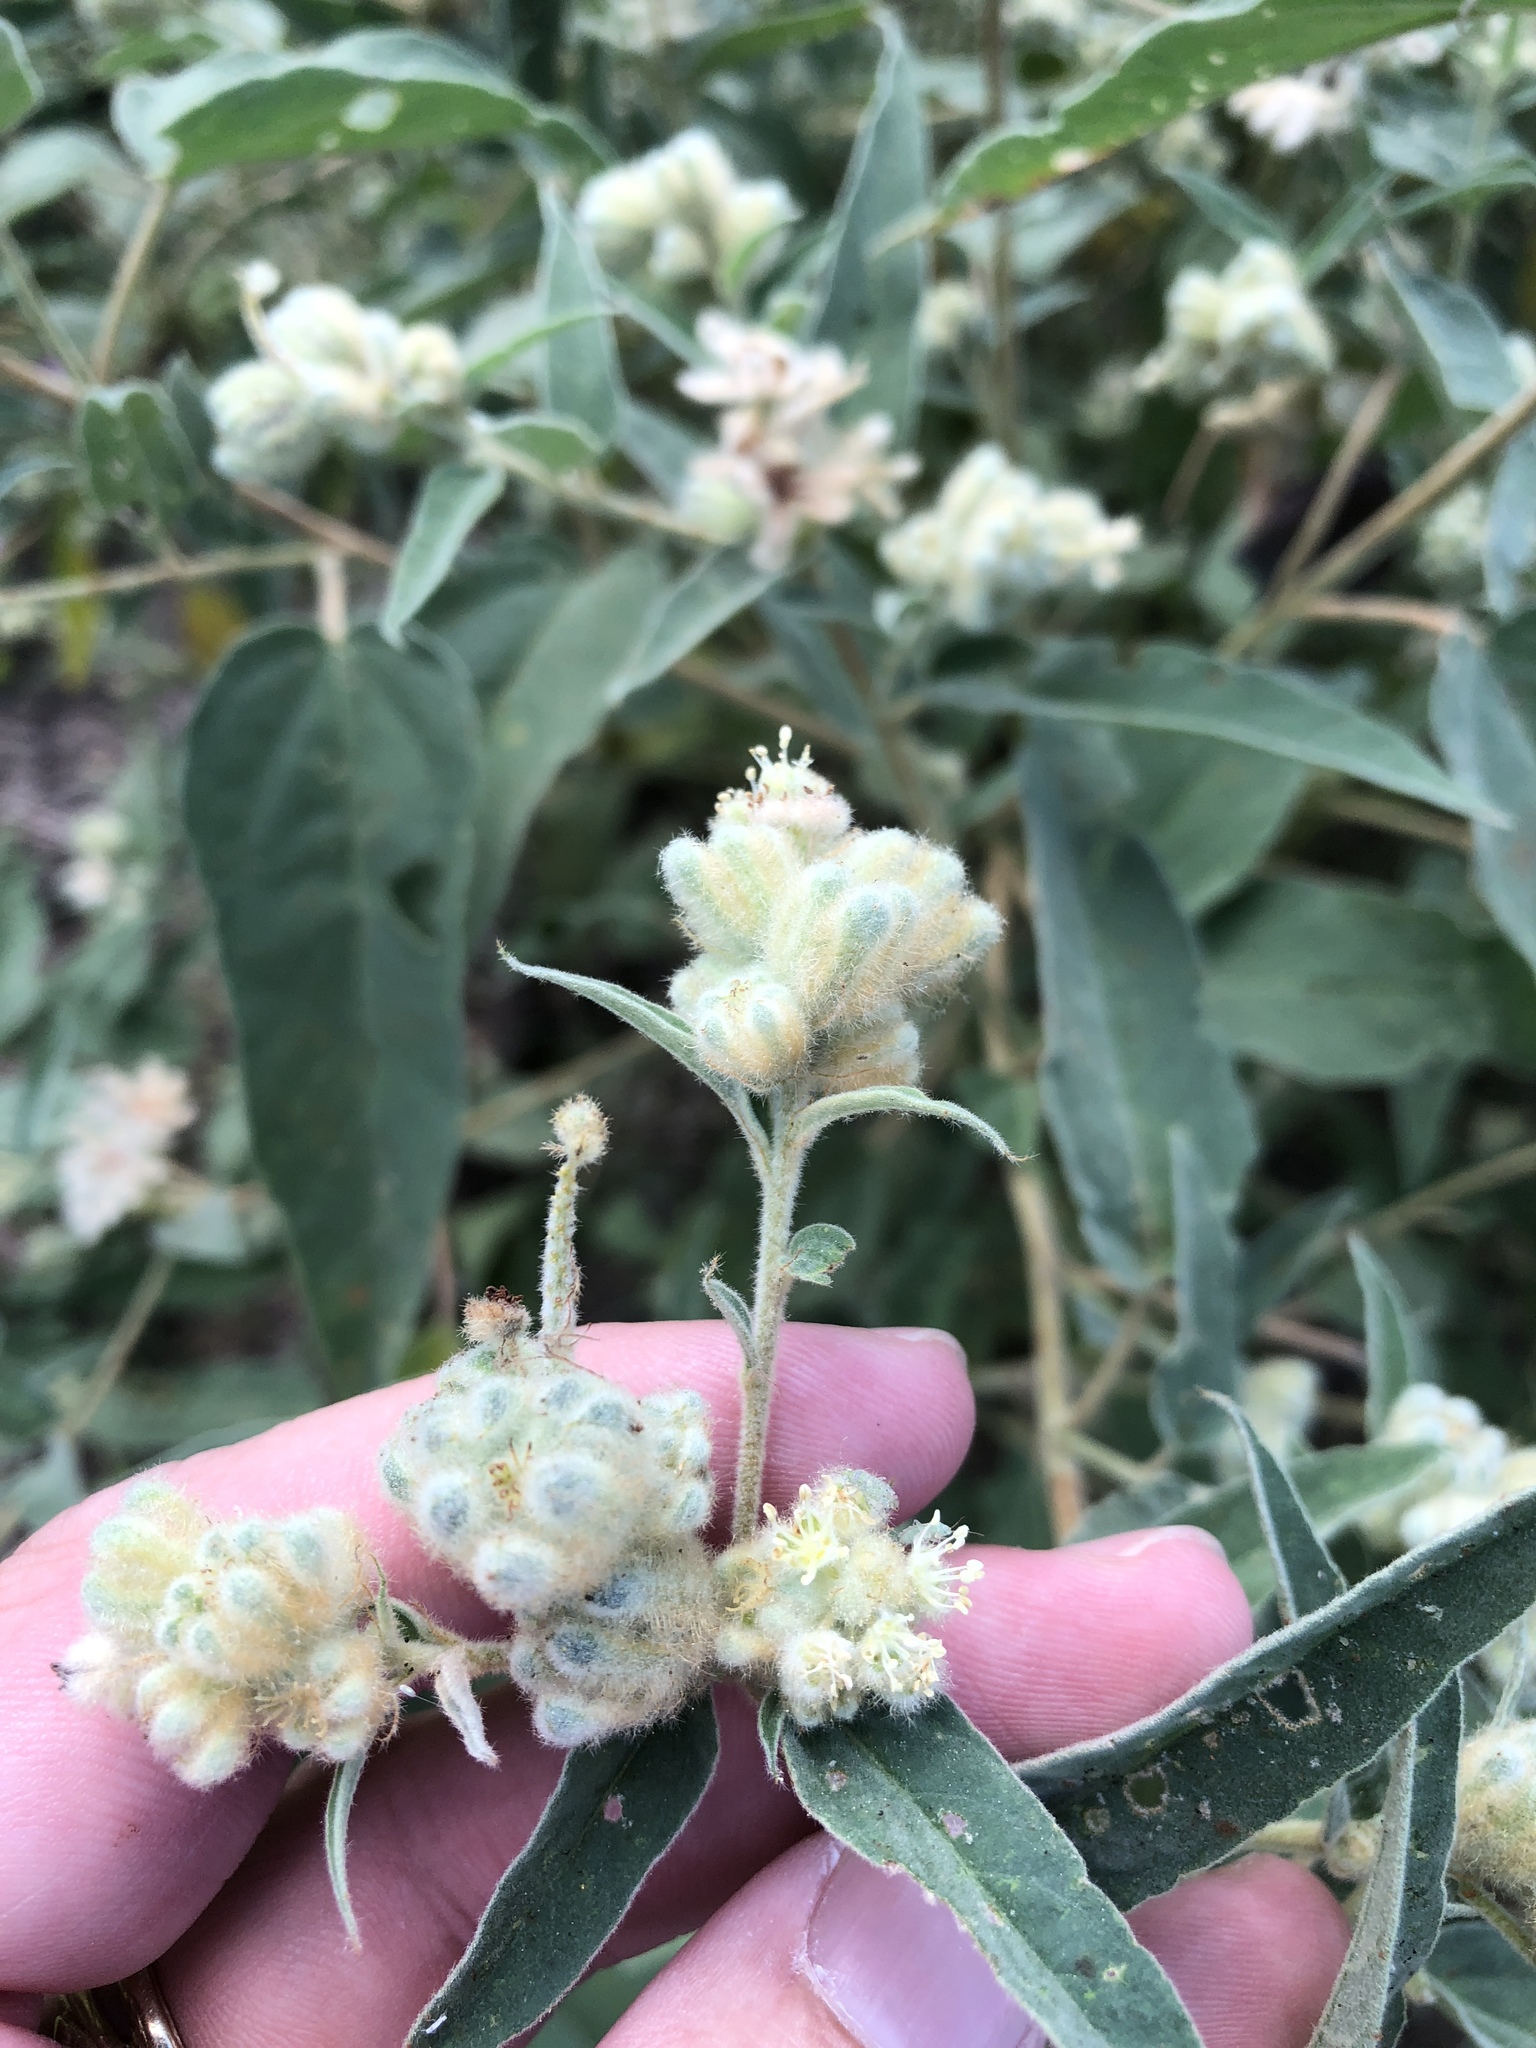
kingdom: Plantae
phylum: Tracheophyta
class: Magnoliopsida
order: Malpighiales
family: Euphorbiaceae
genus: Croton
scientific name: Croton lindheimeri
